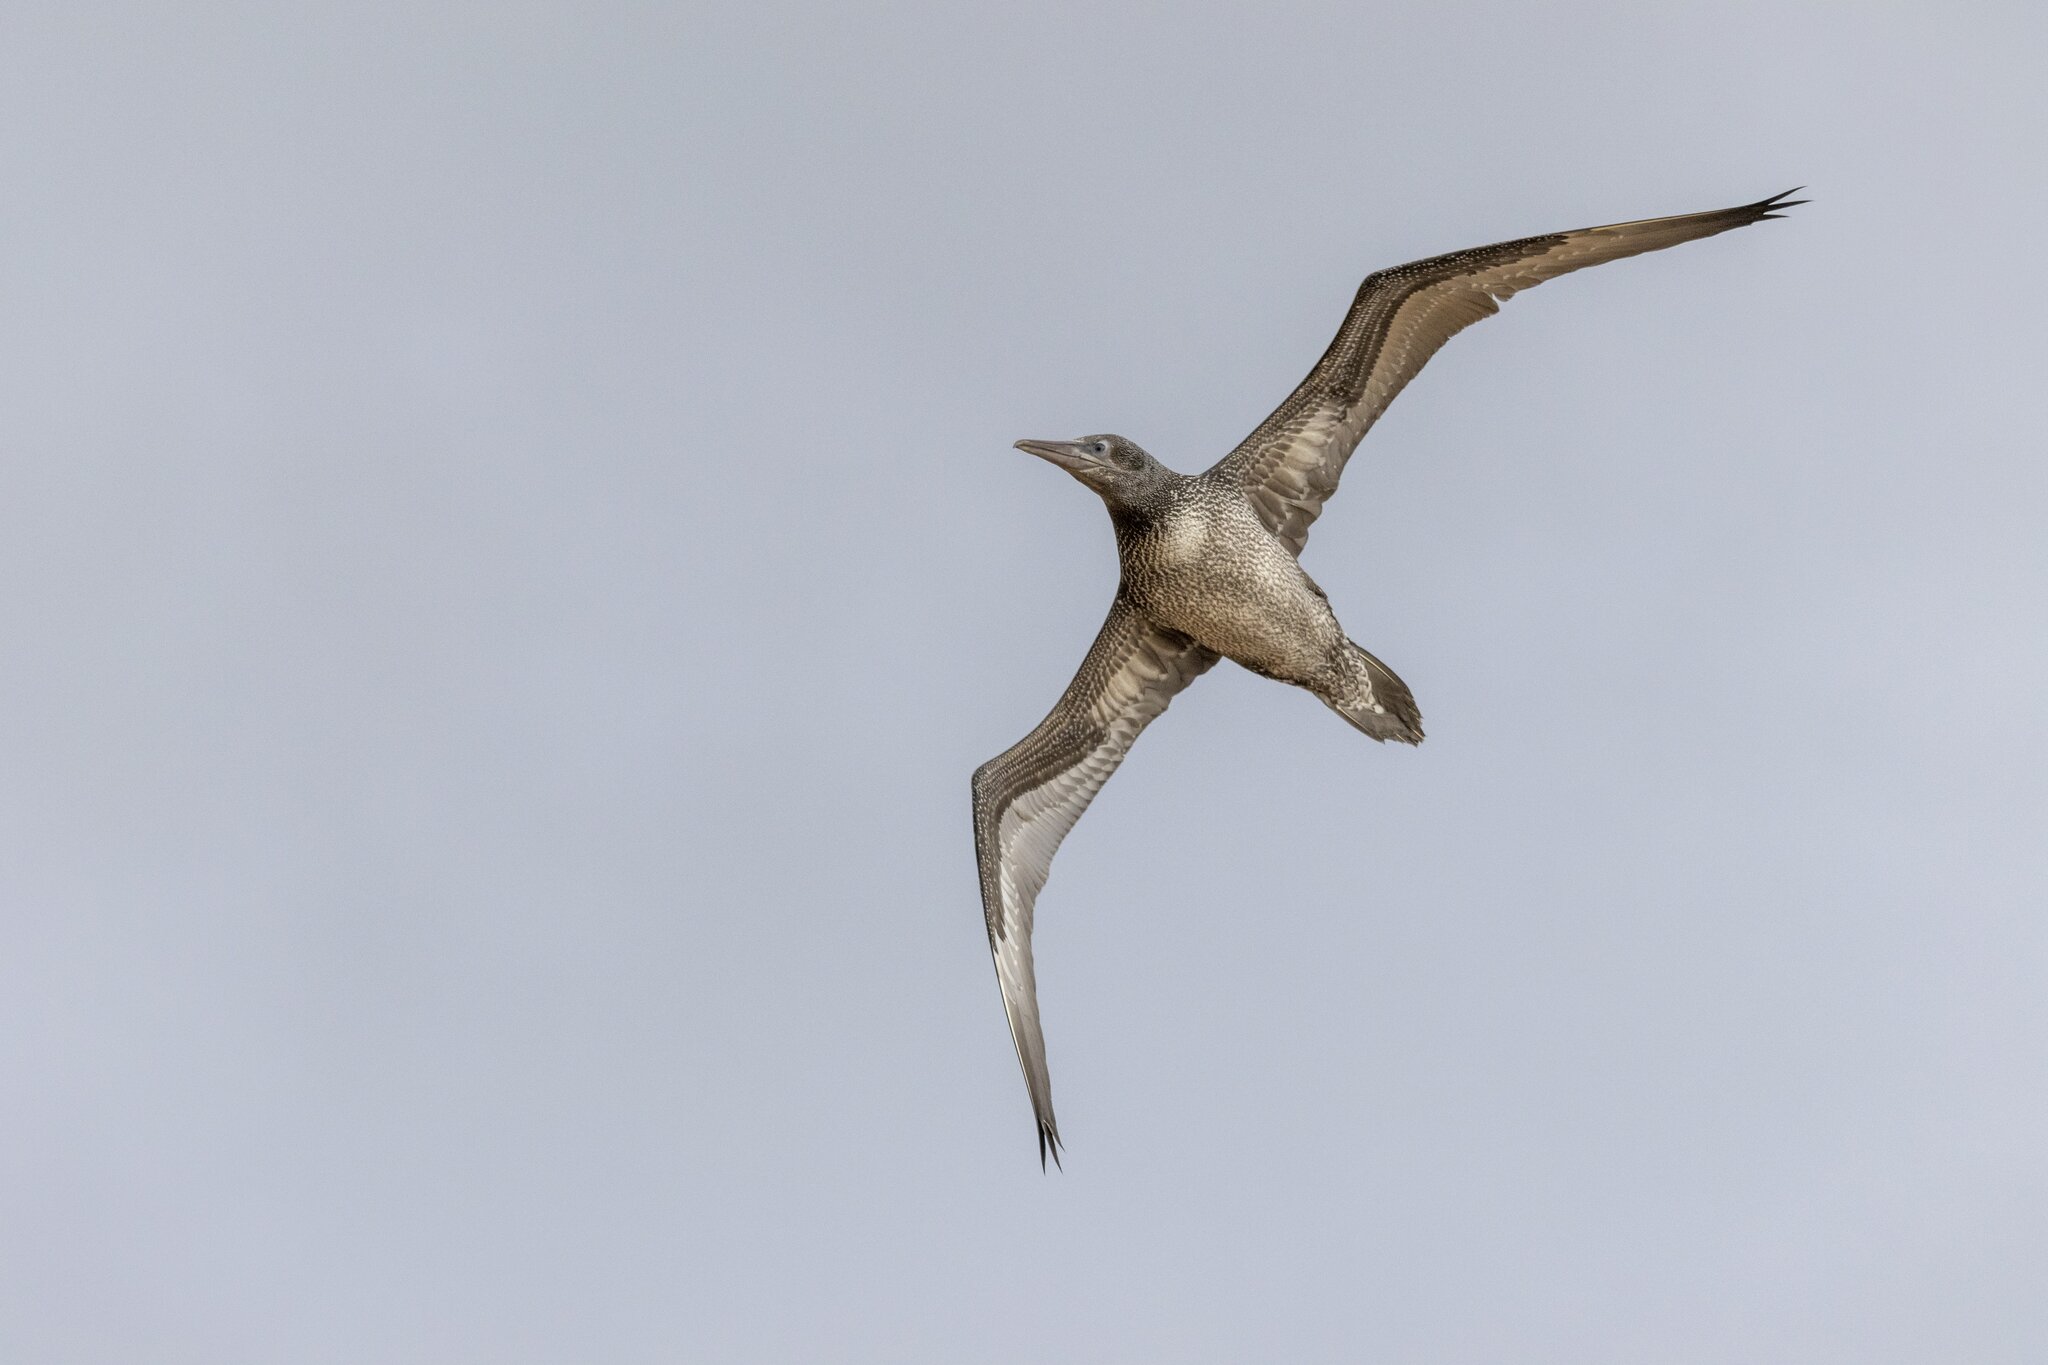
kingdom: Animalia
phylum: Chordata
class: Aves
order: Suliformes
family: Sulidae
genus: Morus
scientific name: Morus bassanus
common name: Northern gannet
